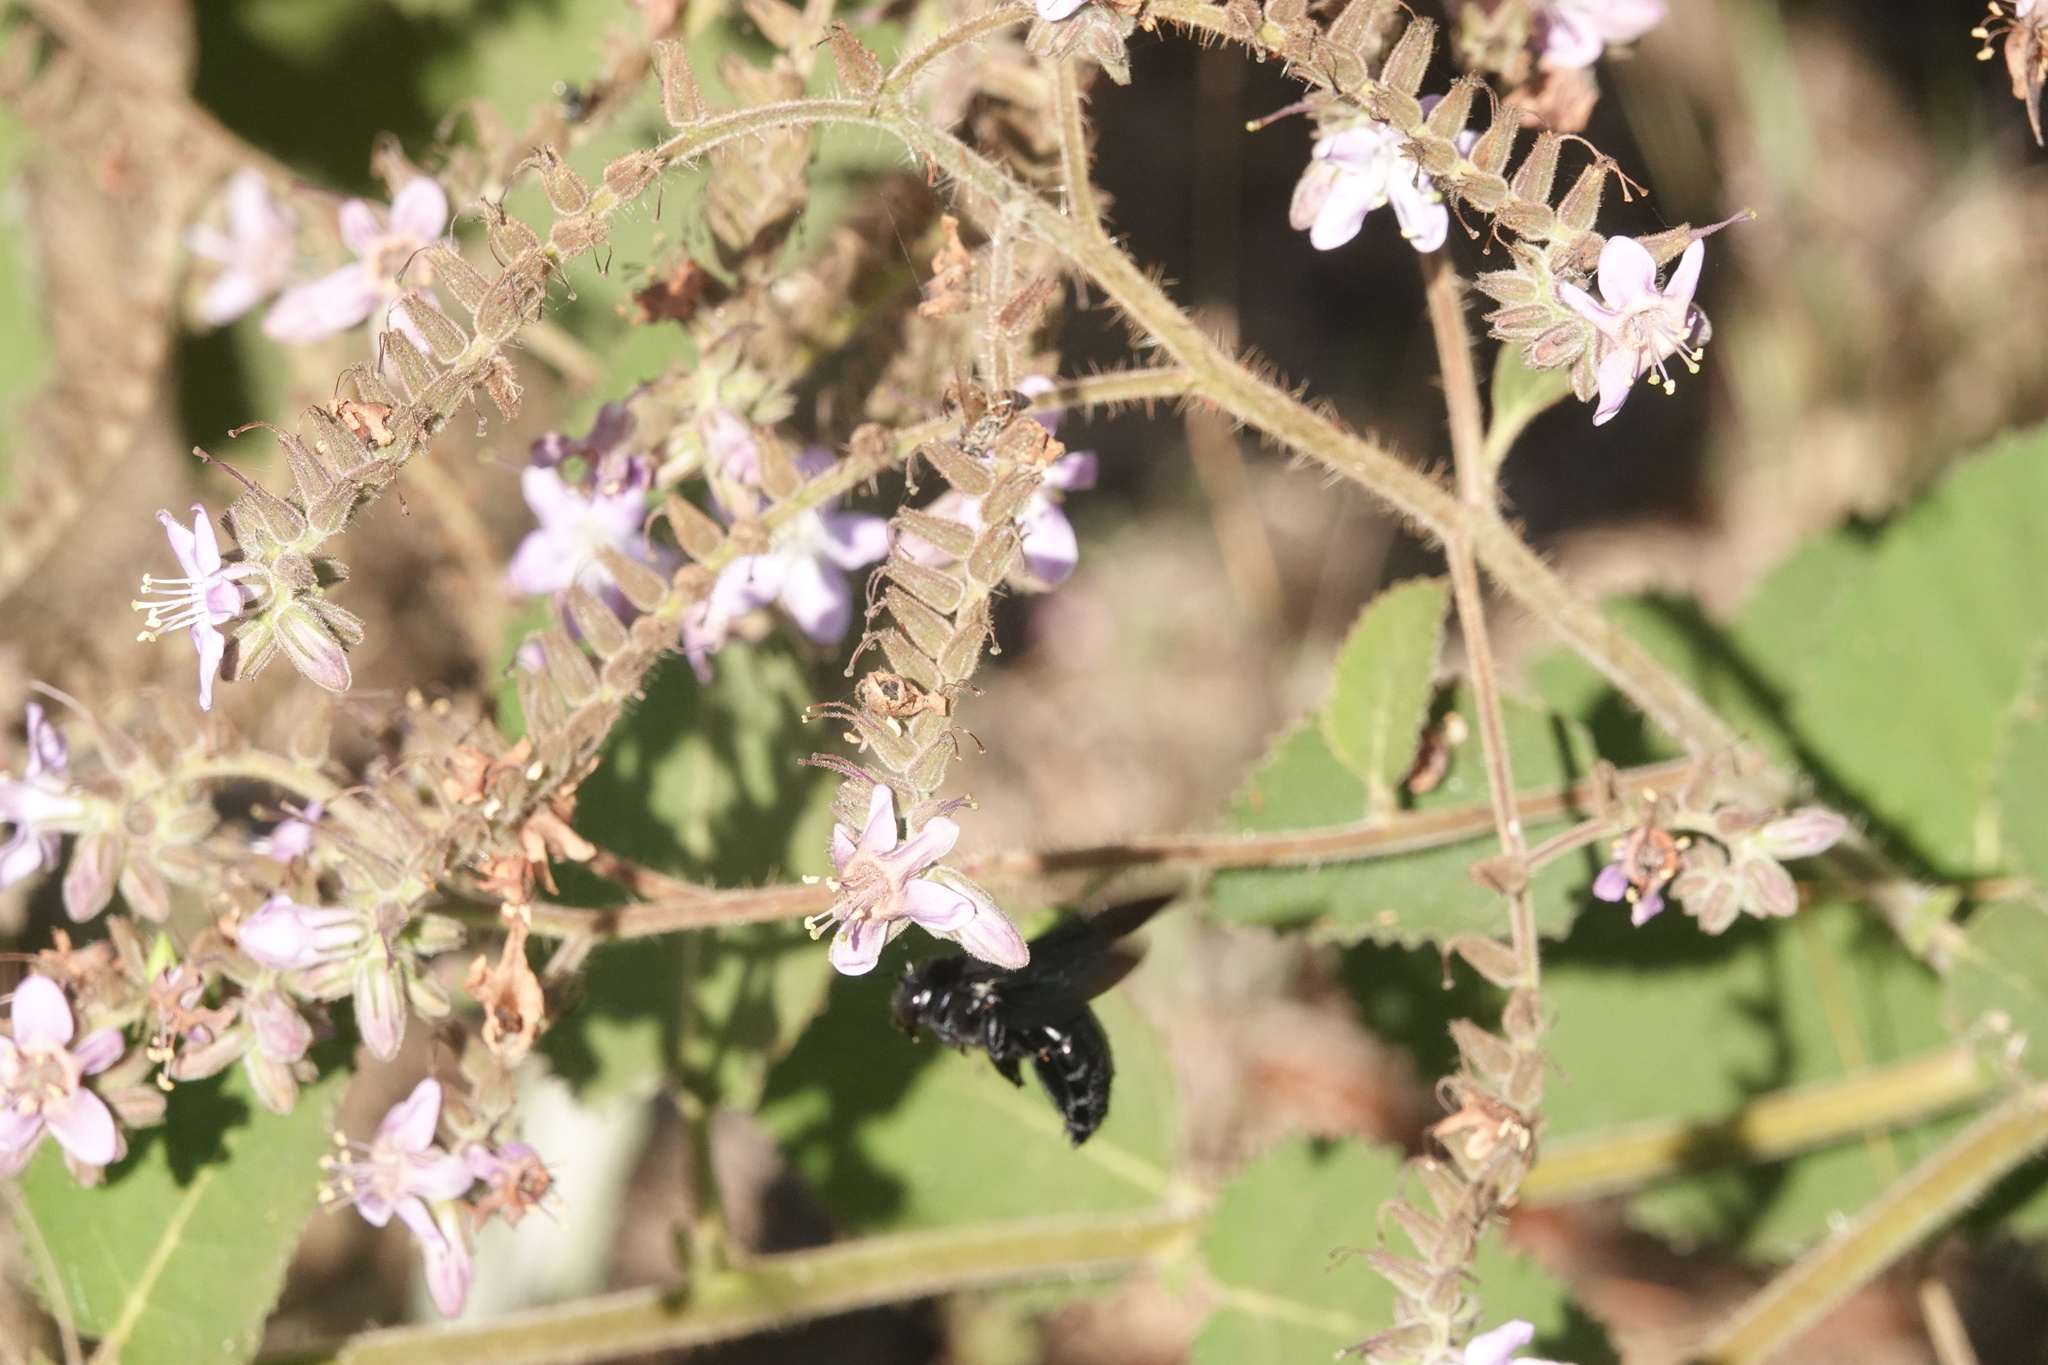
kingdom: Plantae
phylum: Tracheophyta
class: Magnoliopsida
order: Boraginales
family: Namaceae
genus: Wigandia
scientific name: Wigandia urens
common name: Caracus wigandia
